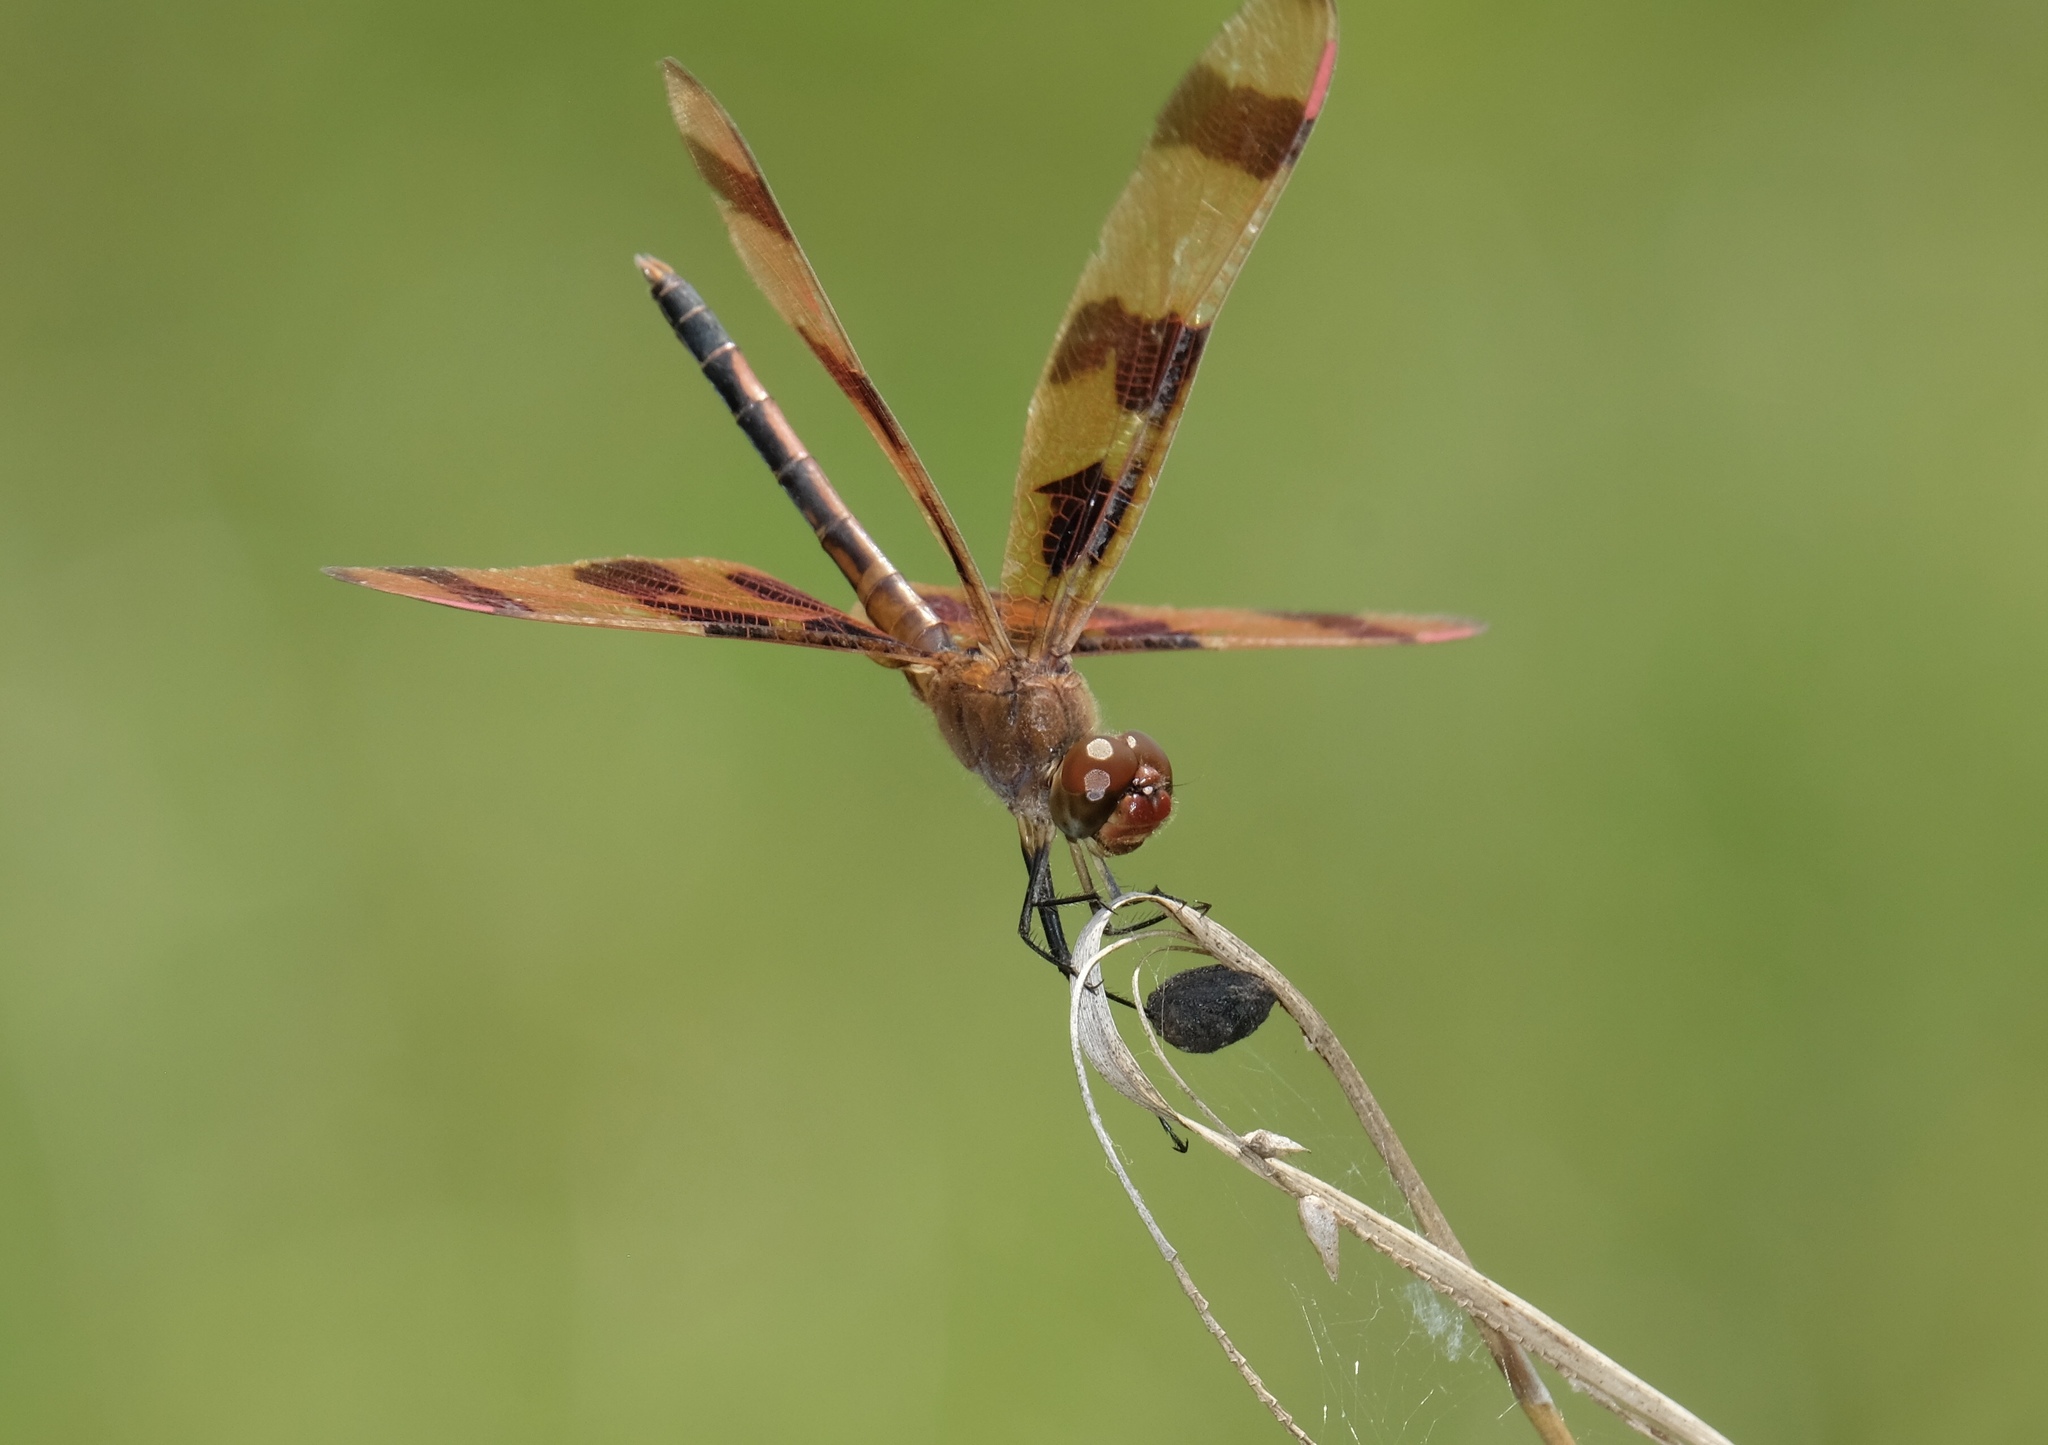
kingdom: Animalia
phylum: Arthropoda
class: Insecta
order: Odonata
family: Libellulidae
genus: Celithemis
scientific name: Celithemis eponina
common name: Halloween pennant
